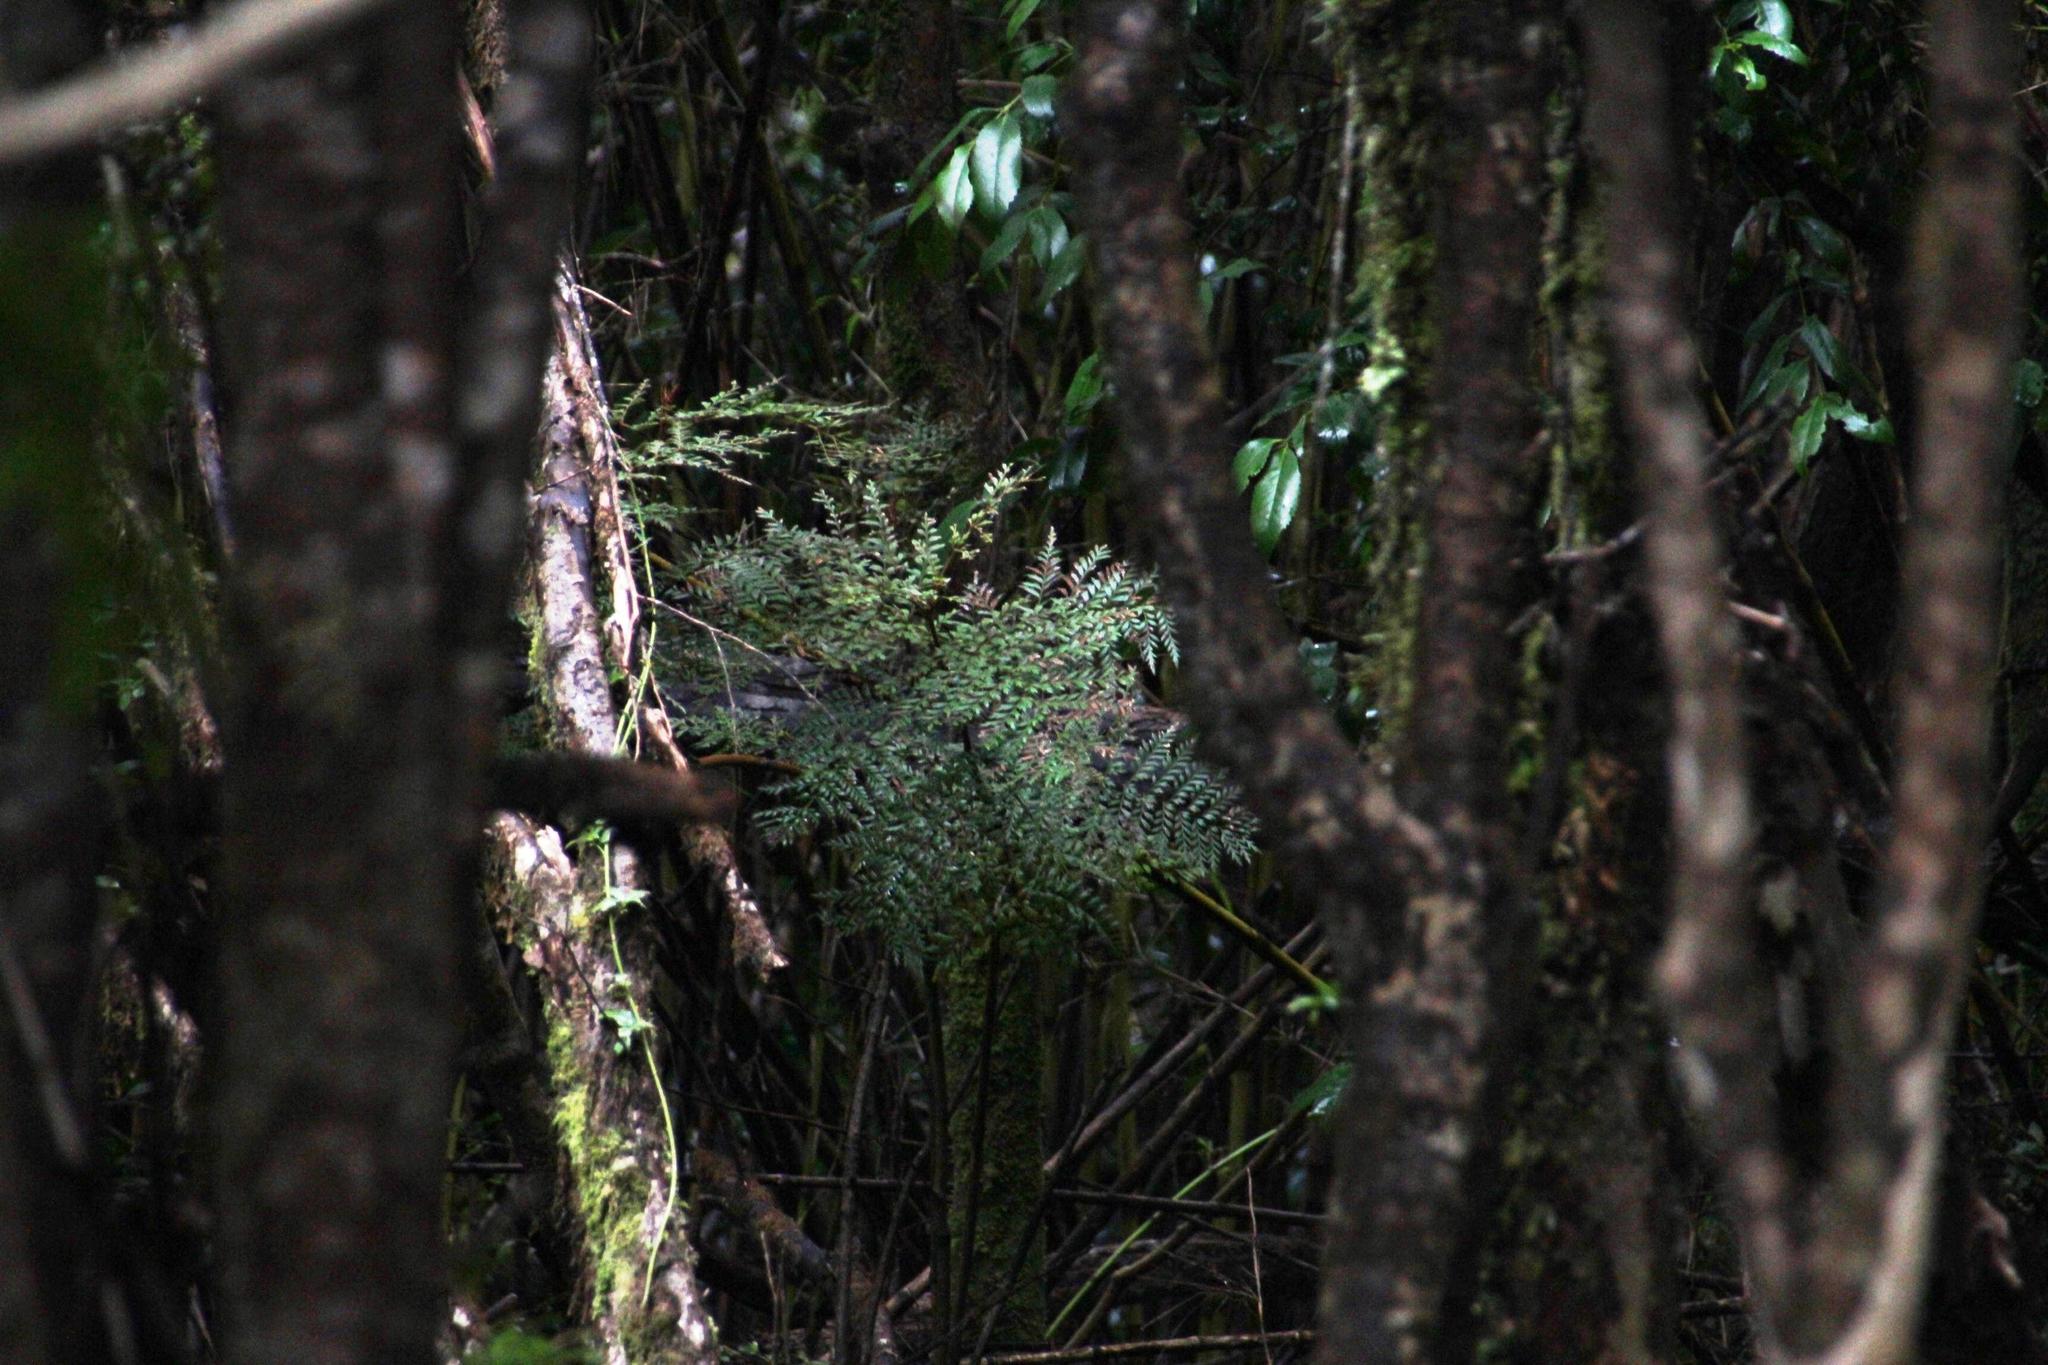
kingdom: Plantae
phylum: Tracheophyta
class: Magnoliopsida
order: Proteales
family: Proteaceae
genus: Lomatia
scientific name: Lomatia ferruginea
